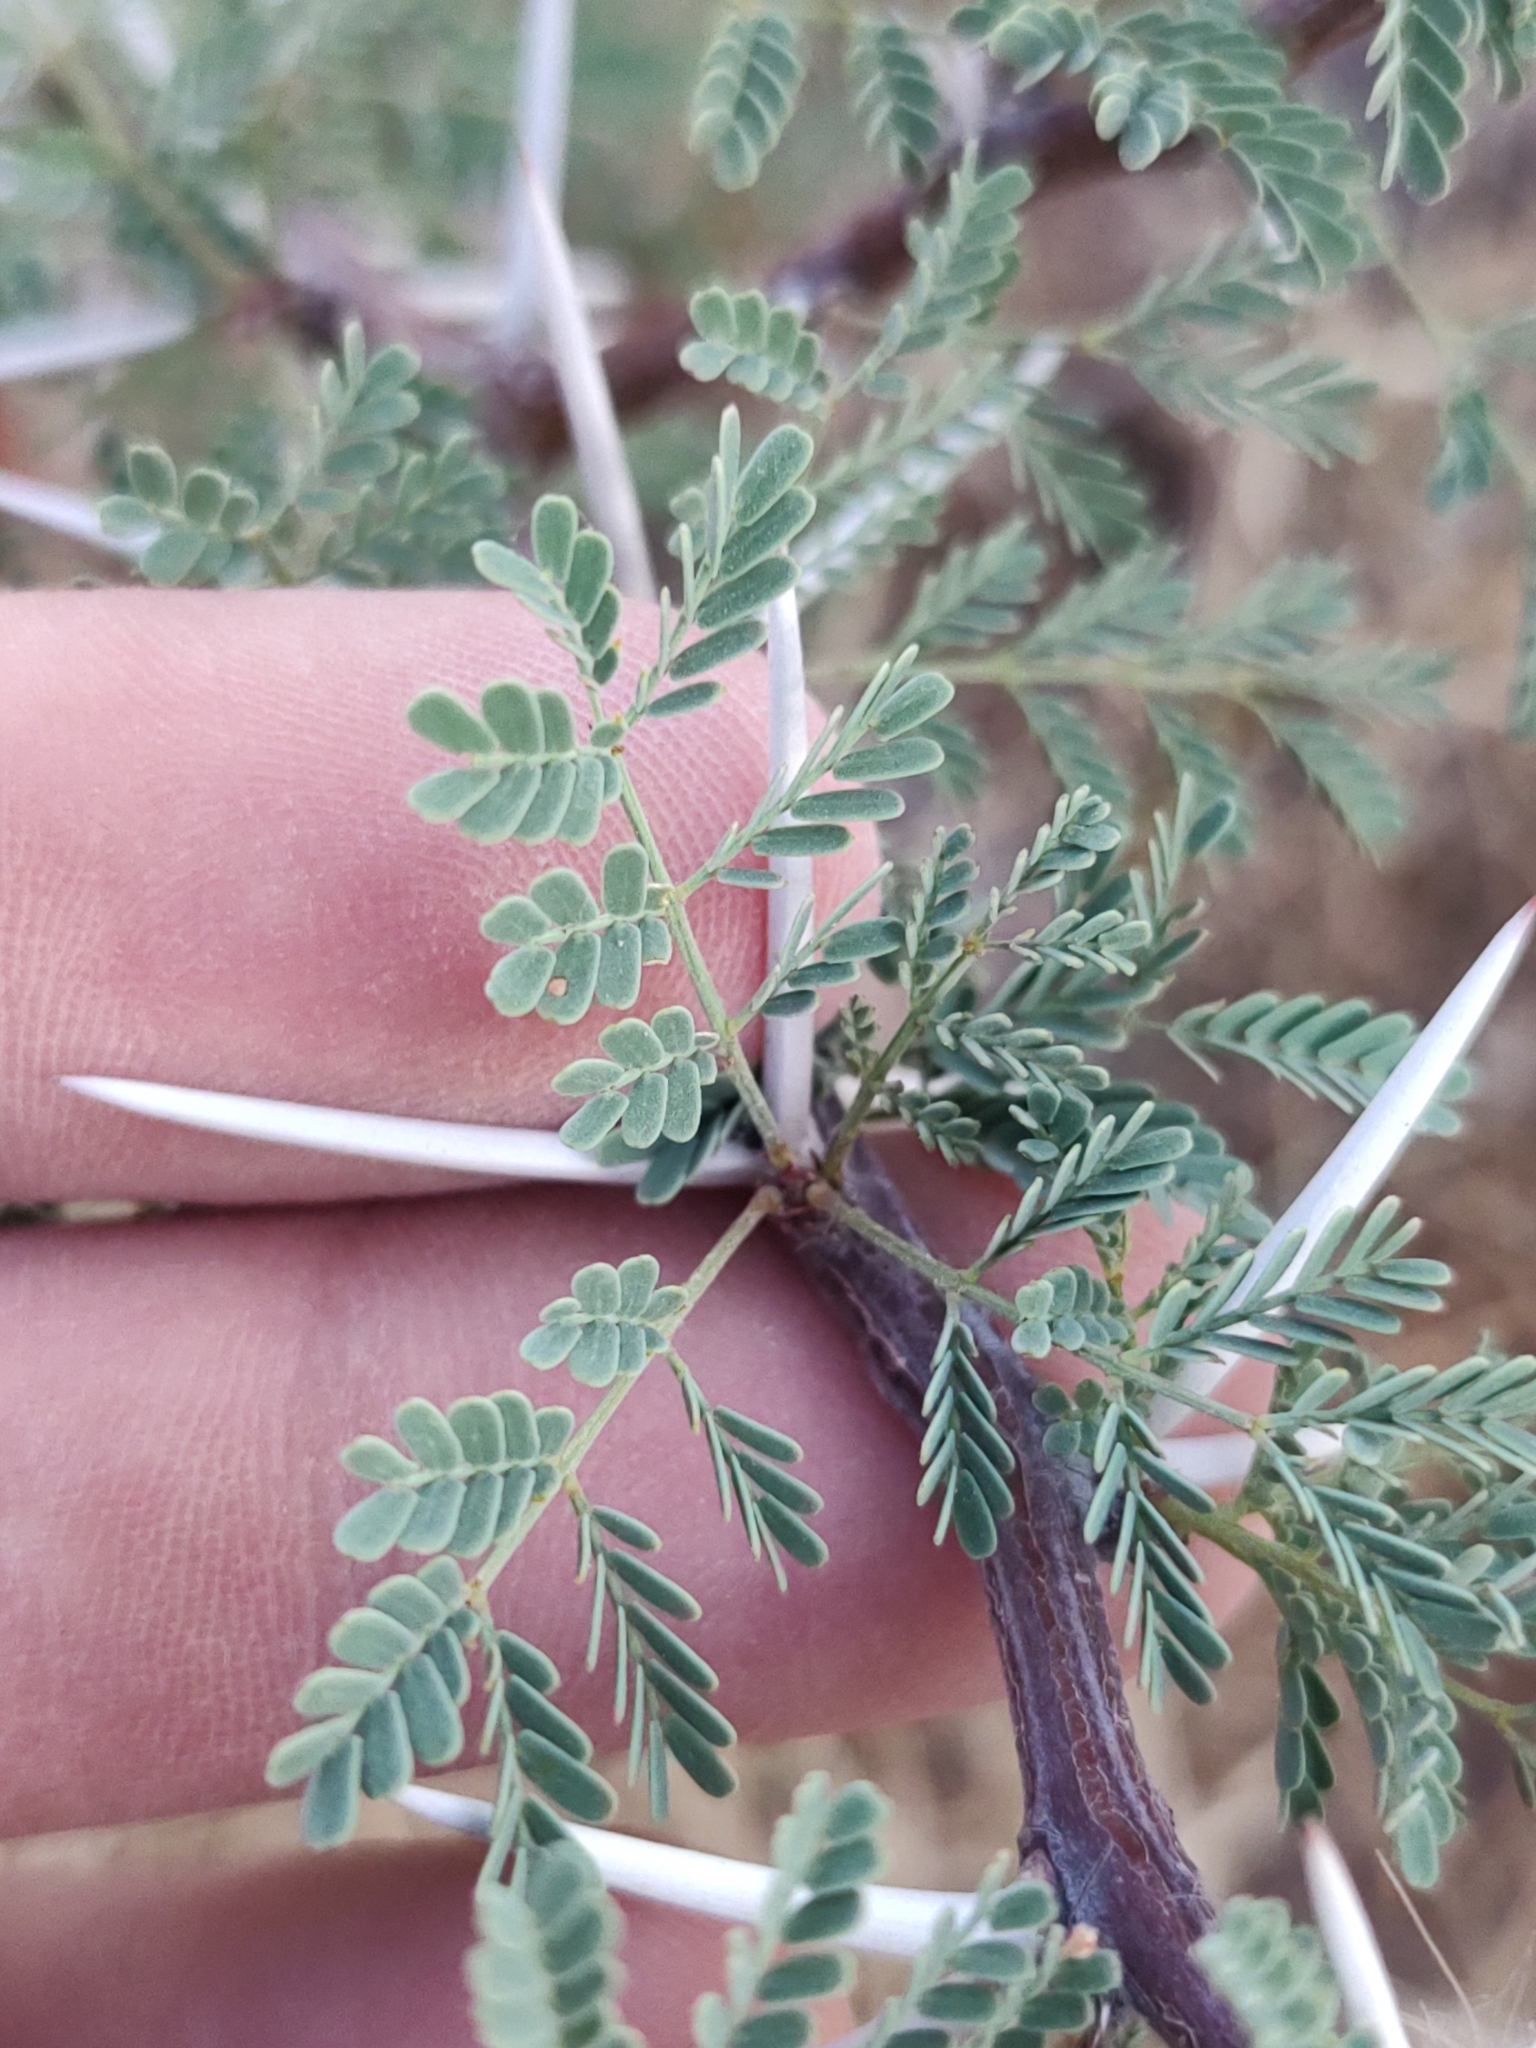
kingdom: Plantae
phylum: Tracheophyta
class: Magnoliopsida
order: Fabales
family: Fabaceae
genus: Vachellia
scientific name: Vachellia pacensis
